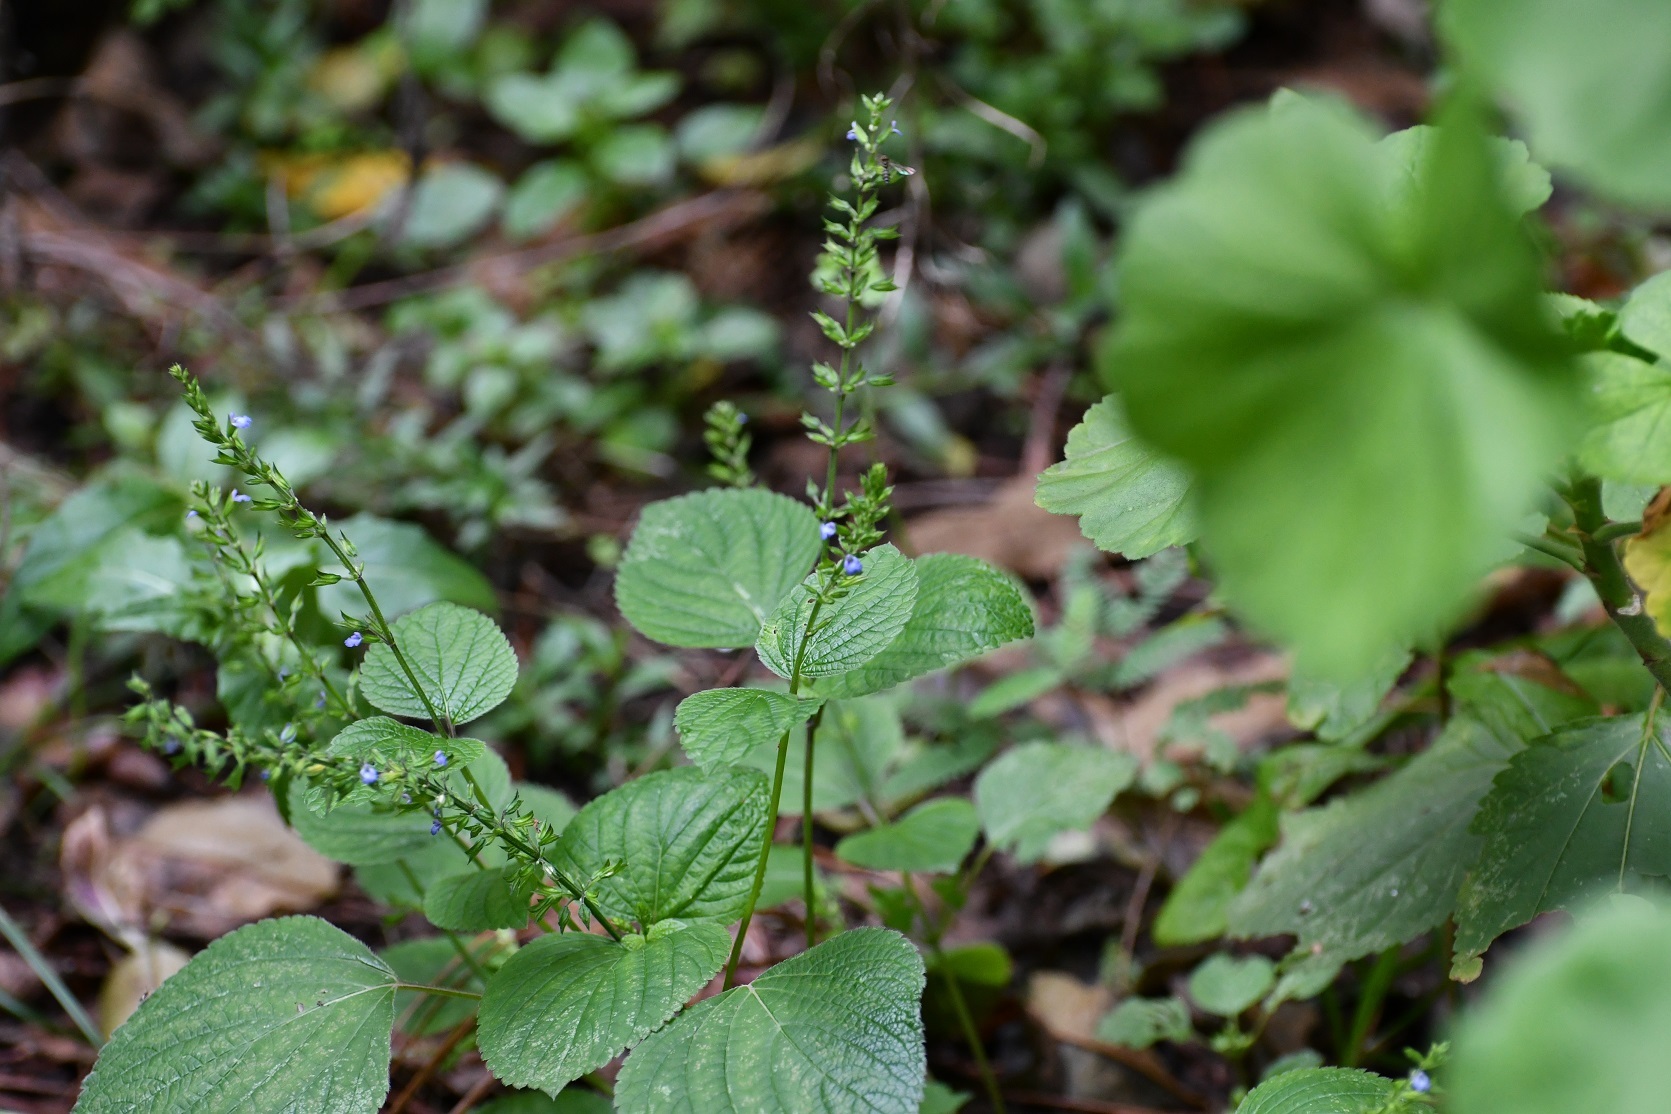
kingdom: Plantae
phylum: Tracheophyta
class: Magnoliopsida
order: Lamiales
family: Lamiaceae
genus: Salvia
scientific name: Salvia tiliifolia
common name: Lindenleaf sage
